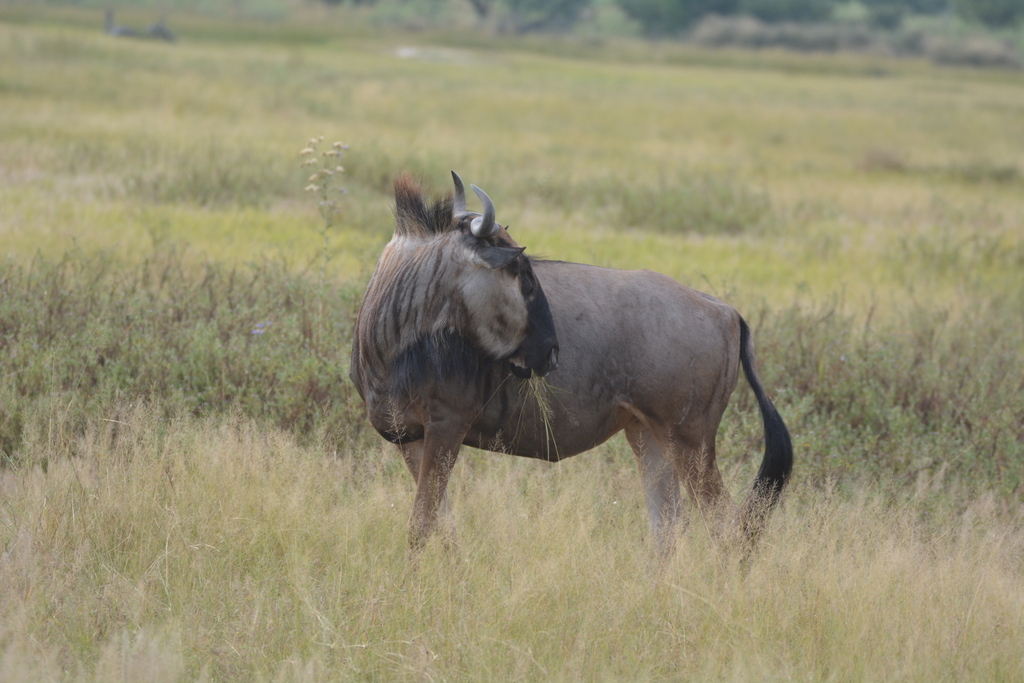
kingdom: Animalia
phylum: Chordata
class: Mammalia
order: Artiodactyla
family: Bovidae
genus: Connochaetes
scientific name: Connochaetes taurinus
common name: Blue wildebeest
